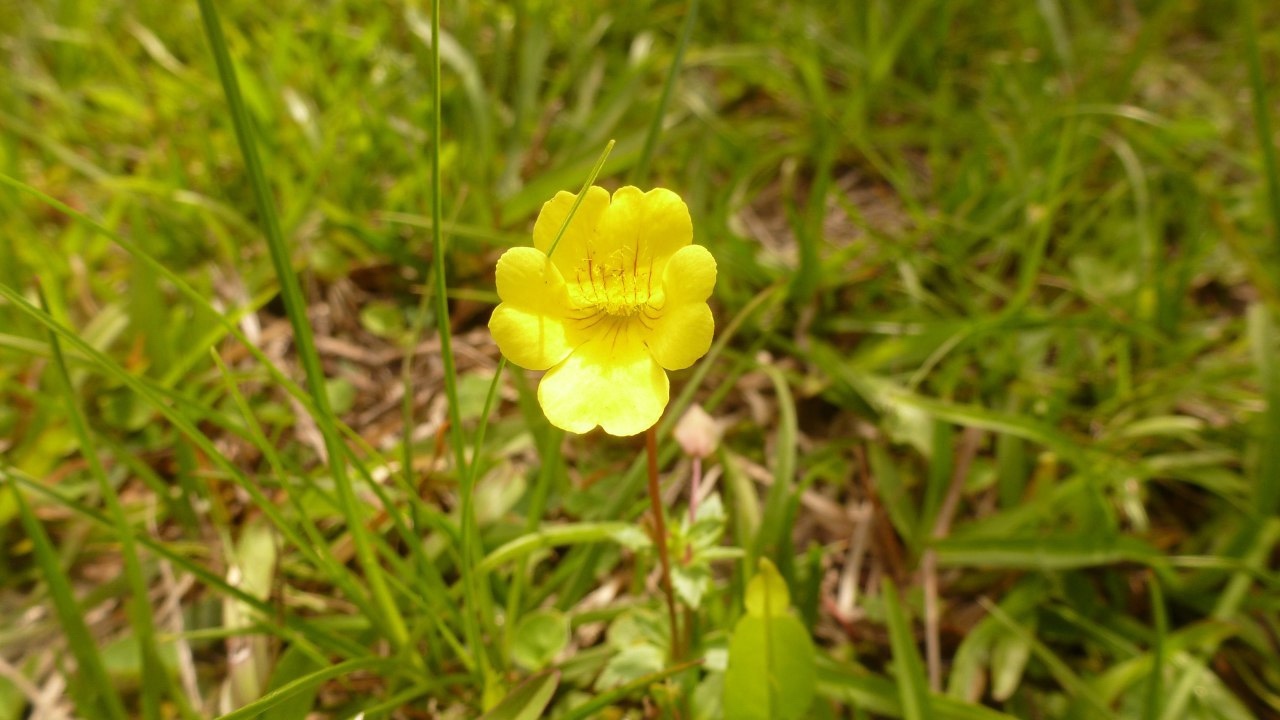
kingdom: Plantae
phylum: Tracheophyta
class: Magnoliopsida
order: Lamiales
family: Plantaginaceae
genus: Mecardonia
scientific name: Mecardonia procumbens
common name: Baby jump-up
